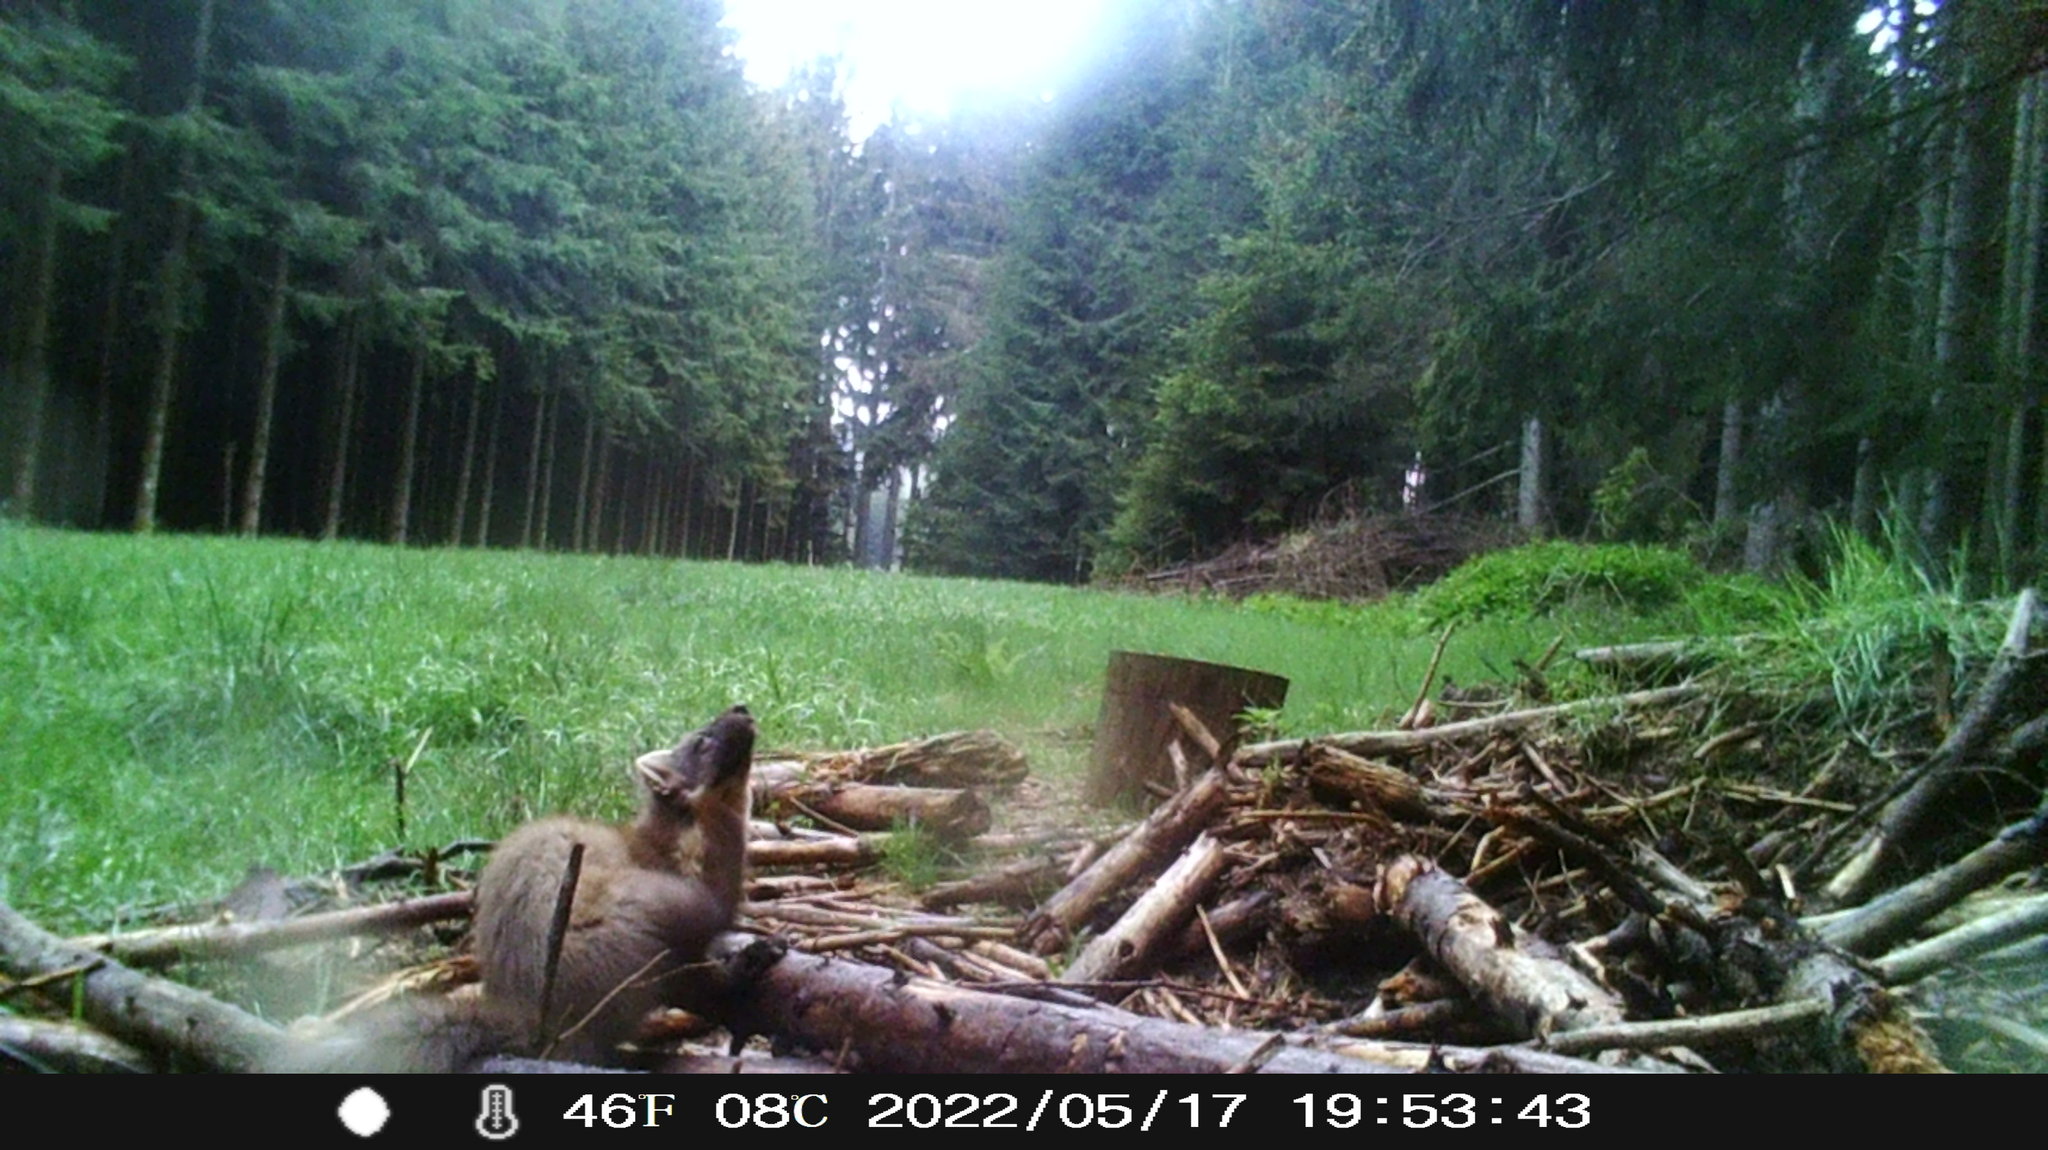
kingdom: Animalia
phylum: Chordata
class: Mammalia
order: Carnivora
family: Mustelidae
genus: Martes
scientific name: Martes martes
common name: European pine marten
